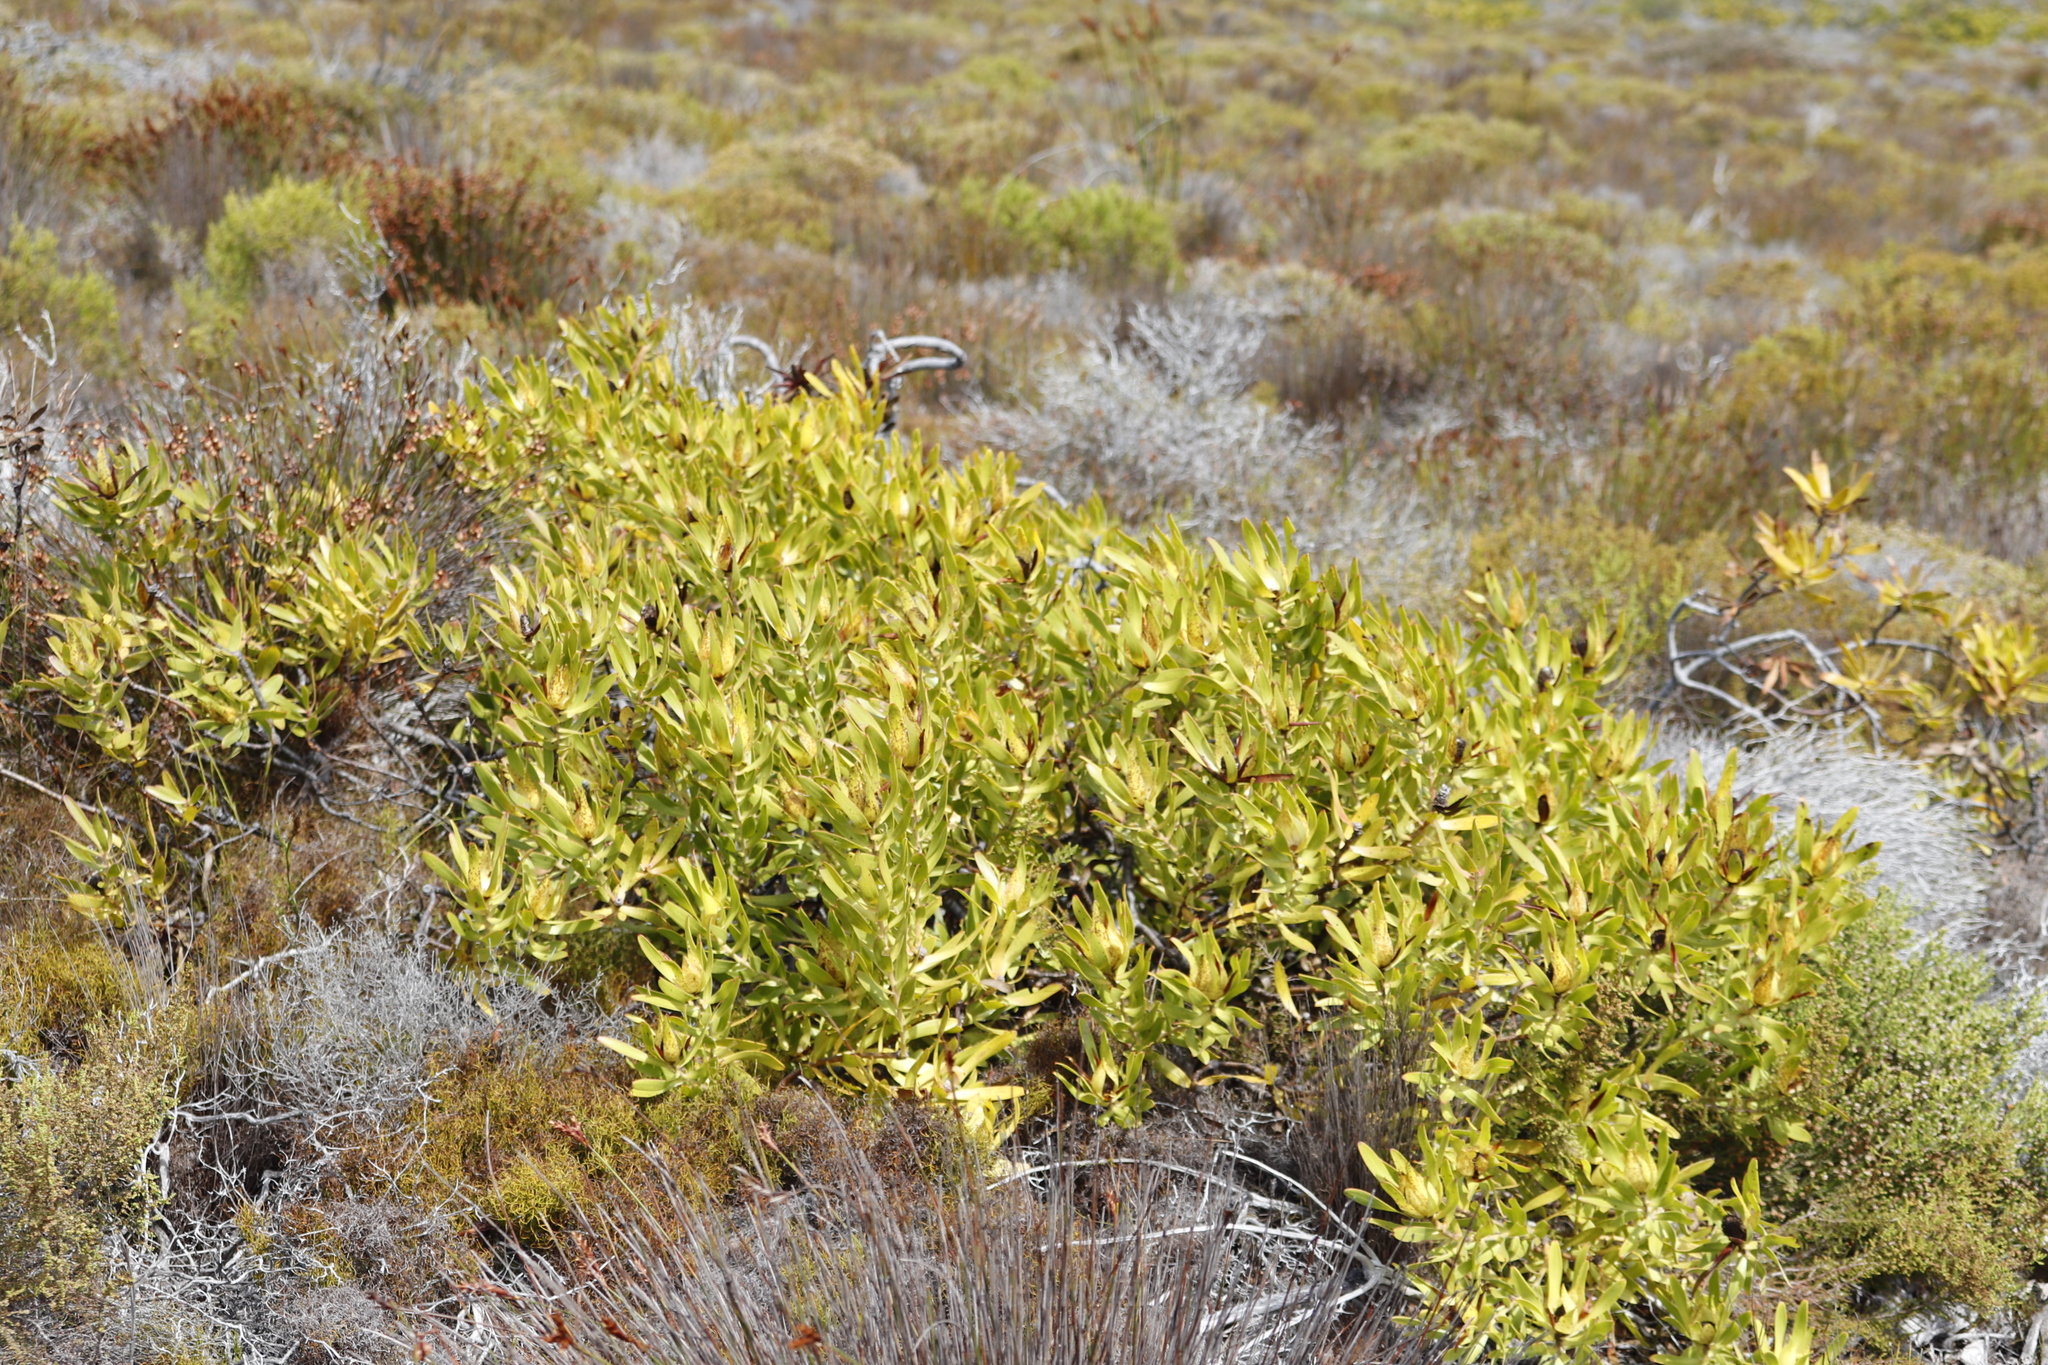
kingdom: Plantae
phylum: Tracheophyta
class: Magnoliopsida
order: Proteales
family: Proteaceae
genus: Leucadendron
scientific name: Leucadendron laureolum
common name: Golden sunshinebush
